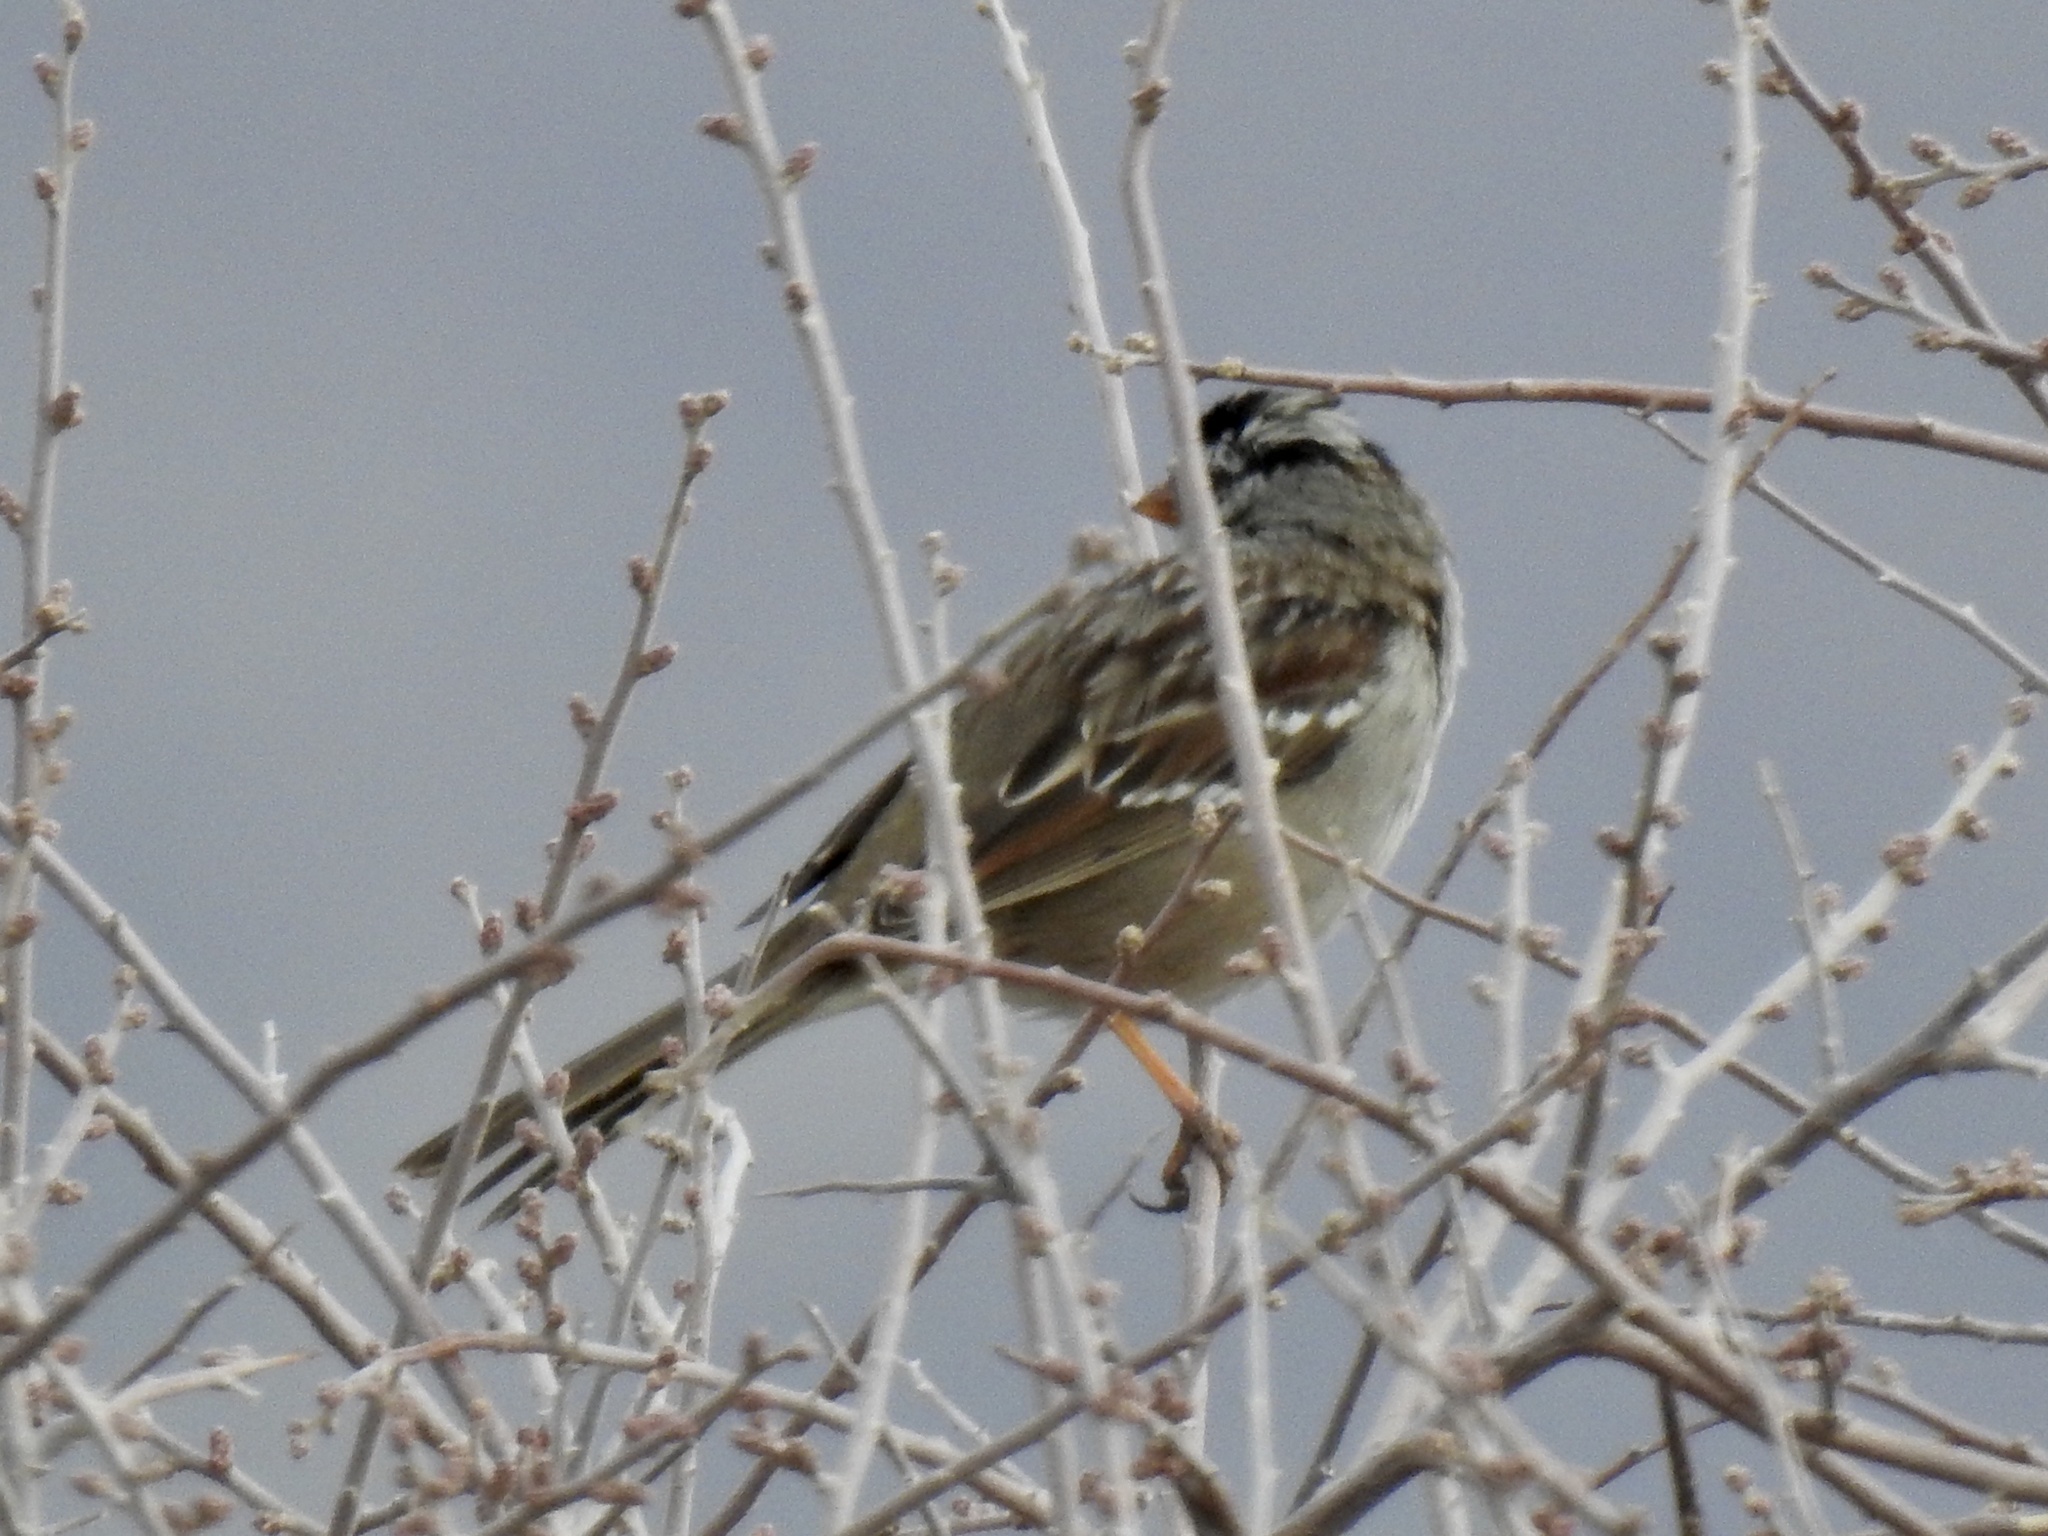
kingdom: Animalia
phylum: Chordata
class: Aves
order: Passeriformes
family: Passerellidae
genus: Zonotrichia
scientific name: Zonotrichia leucophrys
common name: White-crowned sparrow
